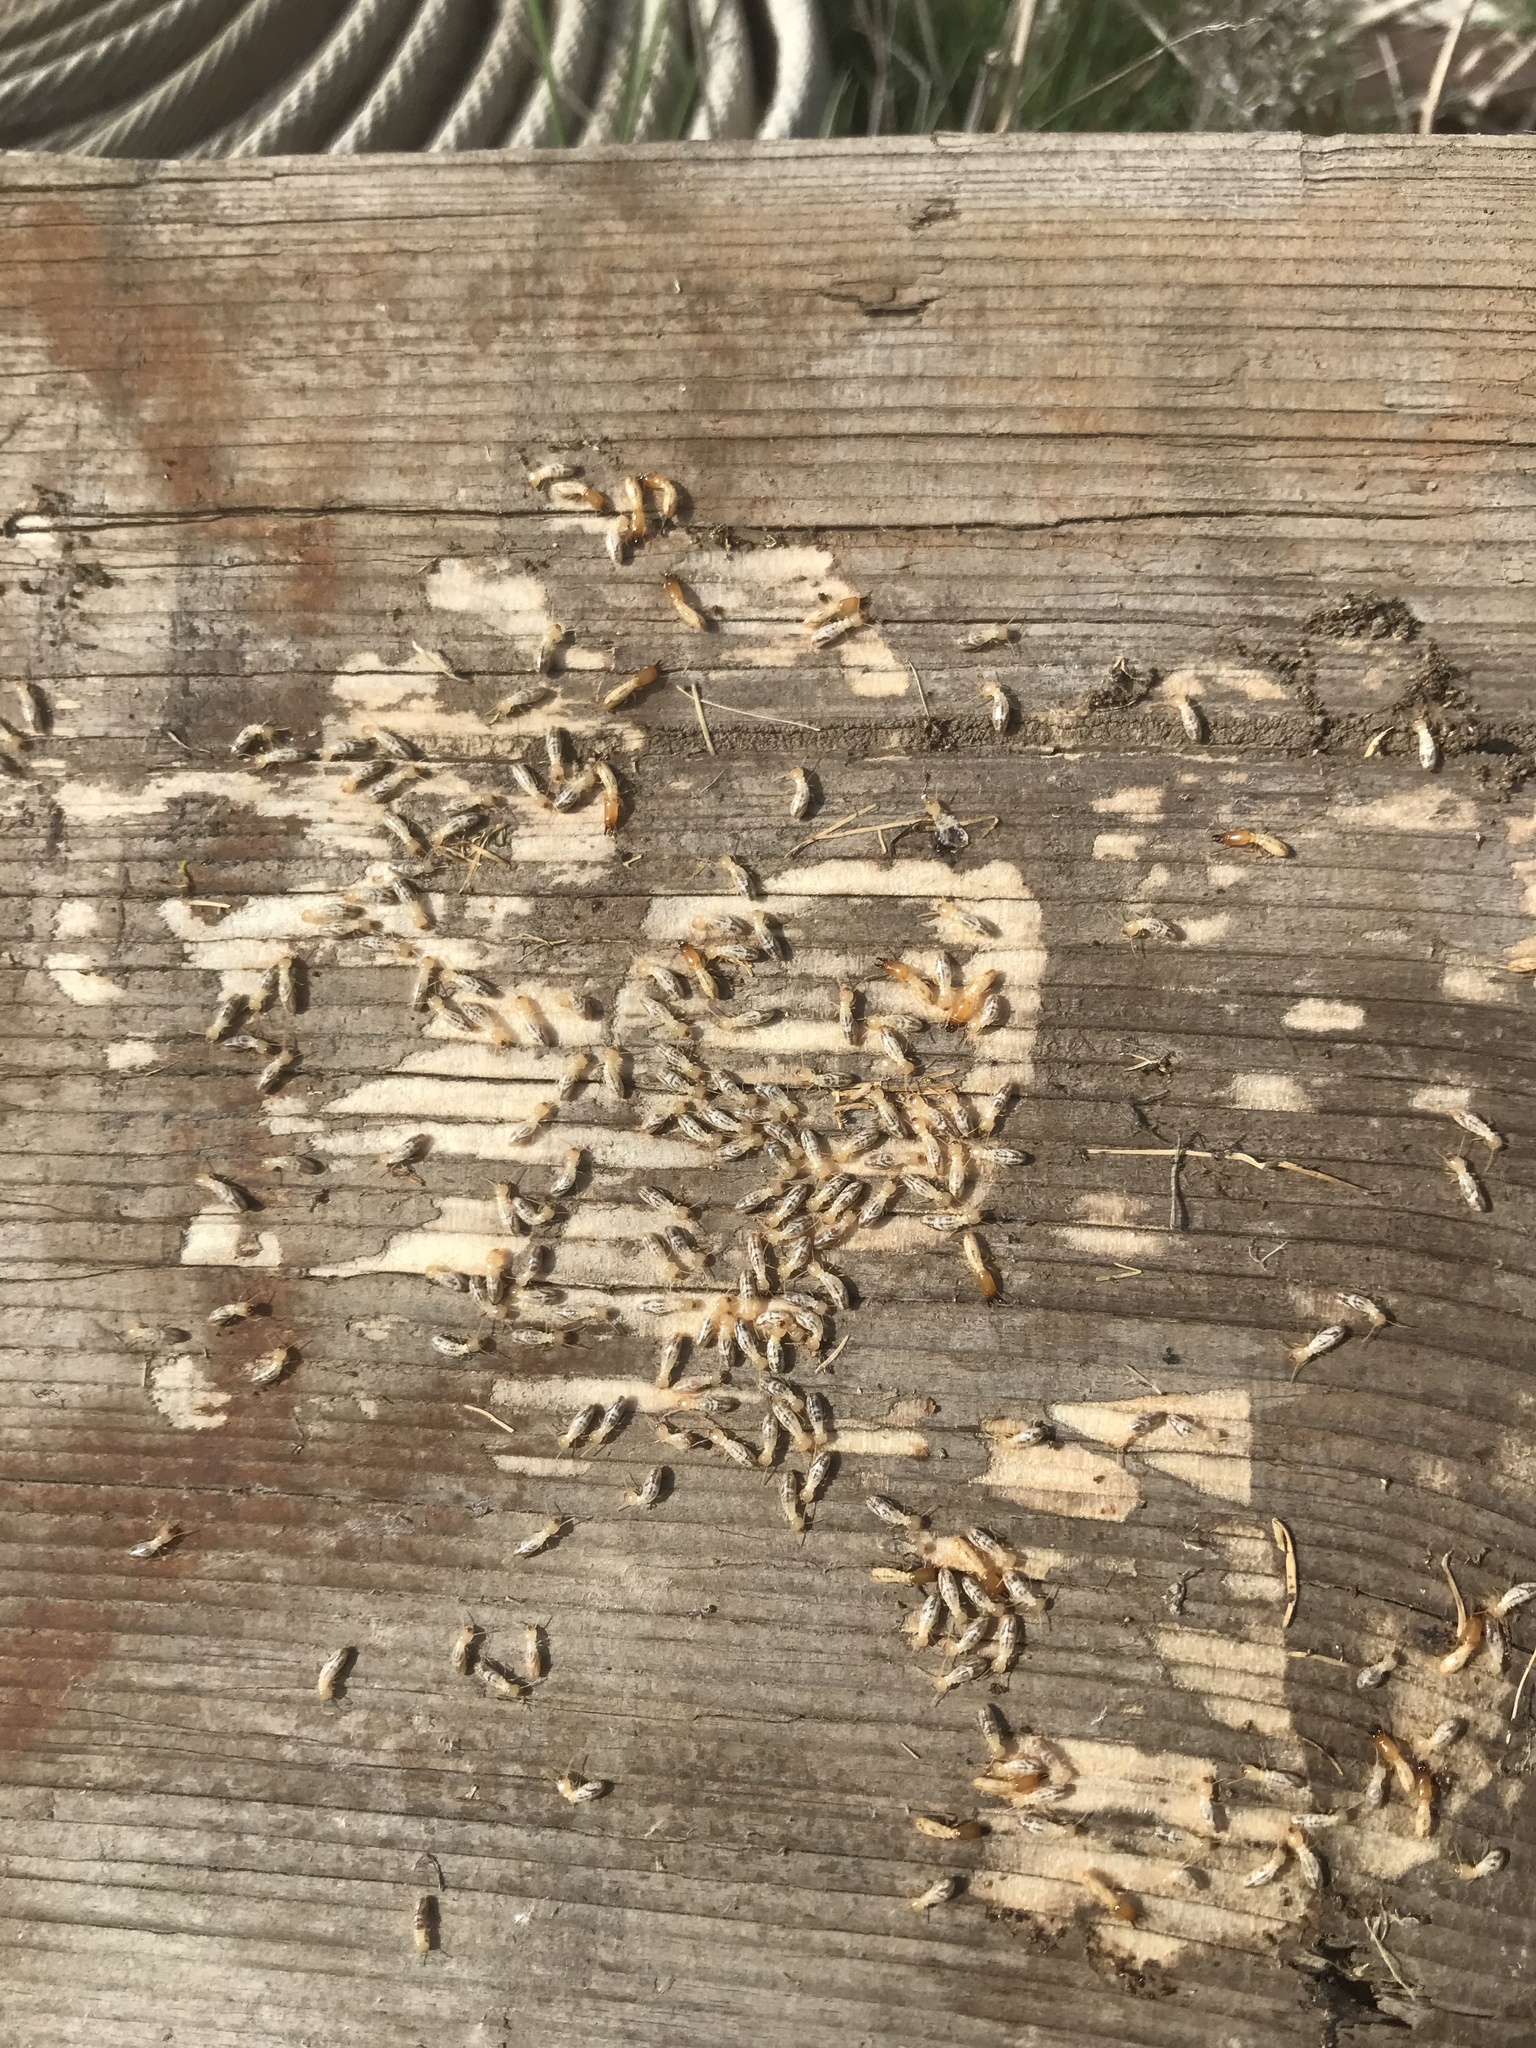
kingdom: Animalia
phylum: Arthropoda
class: Insecta
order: Blattodea
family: Rhinotermitidae
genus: Reticulitermes
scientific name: Reticulitermes hesperus
